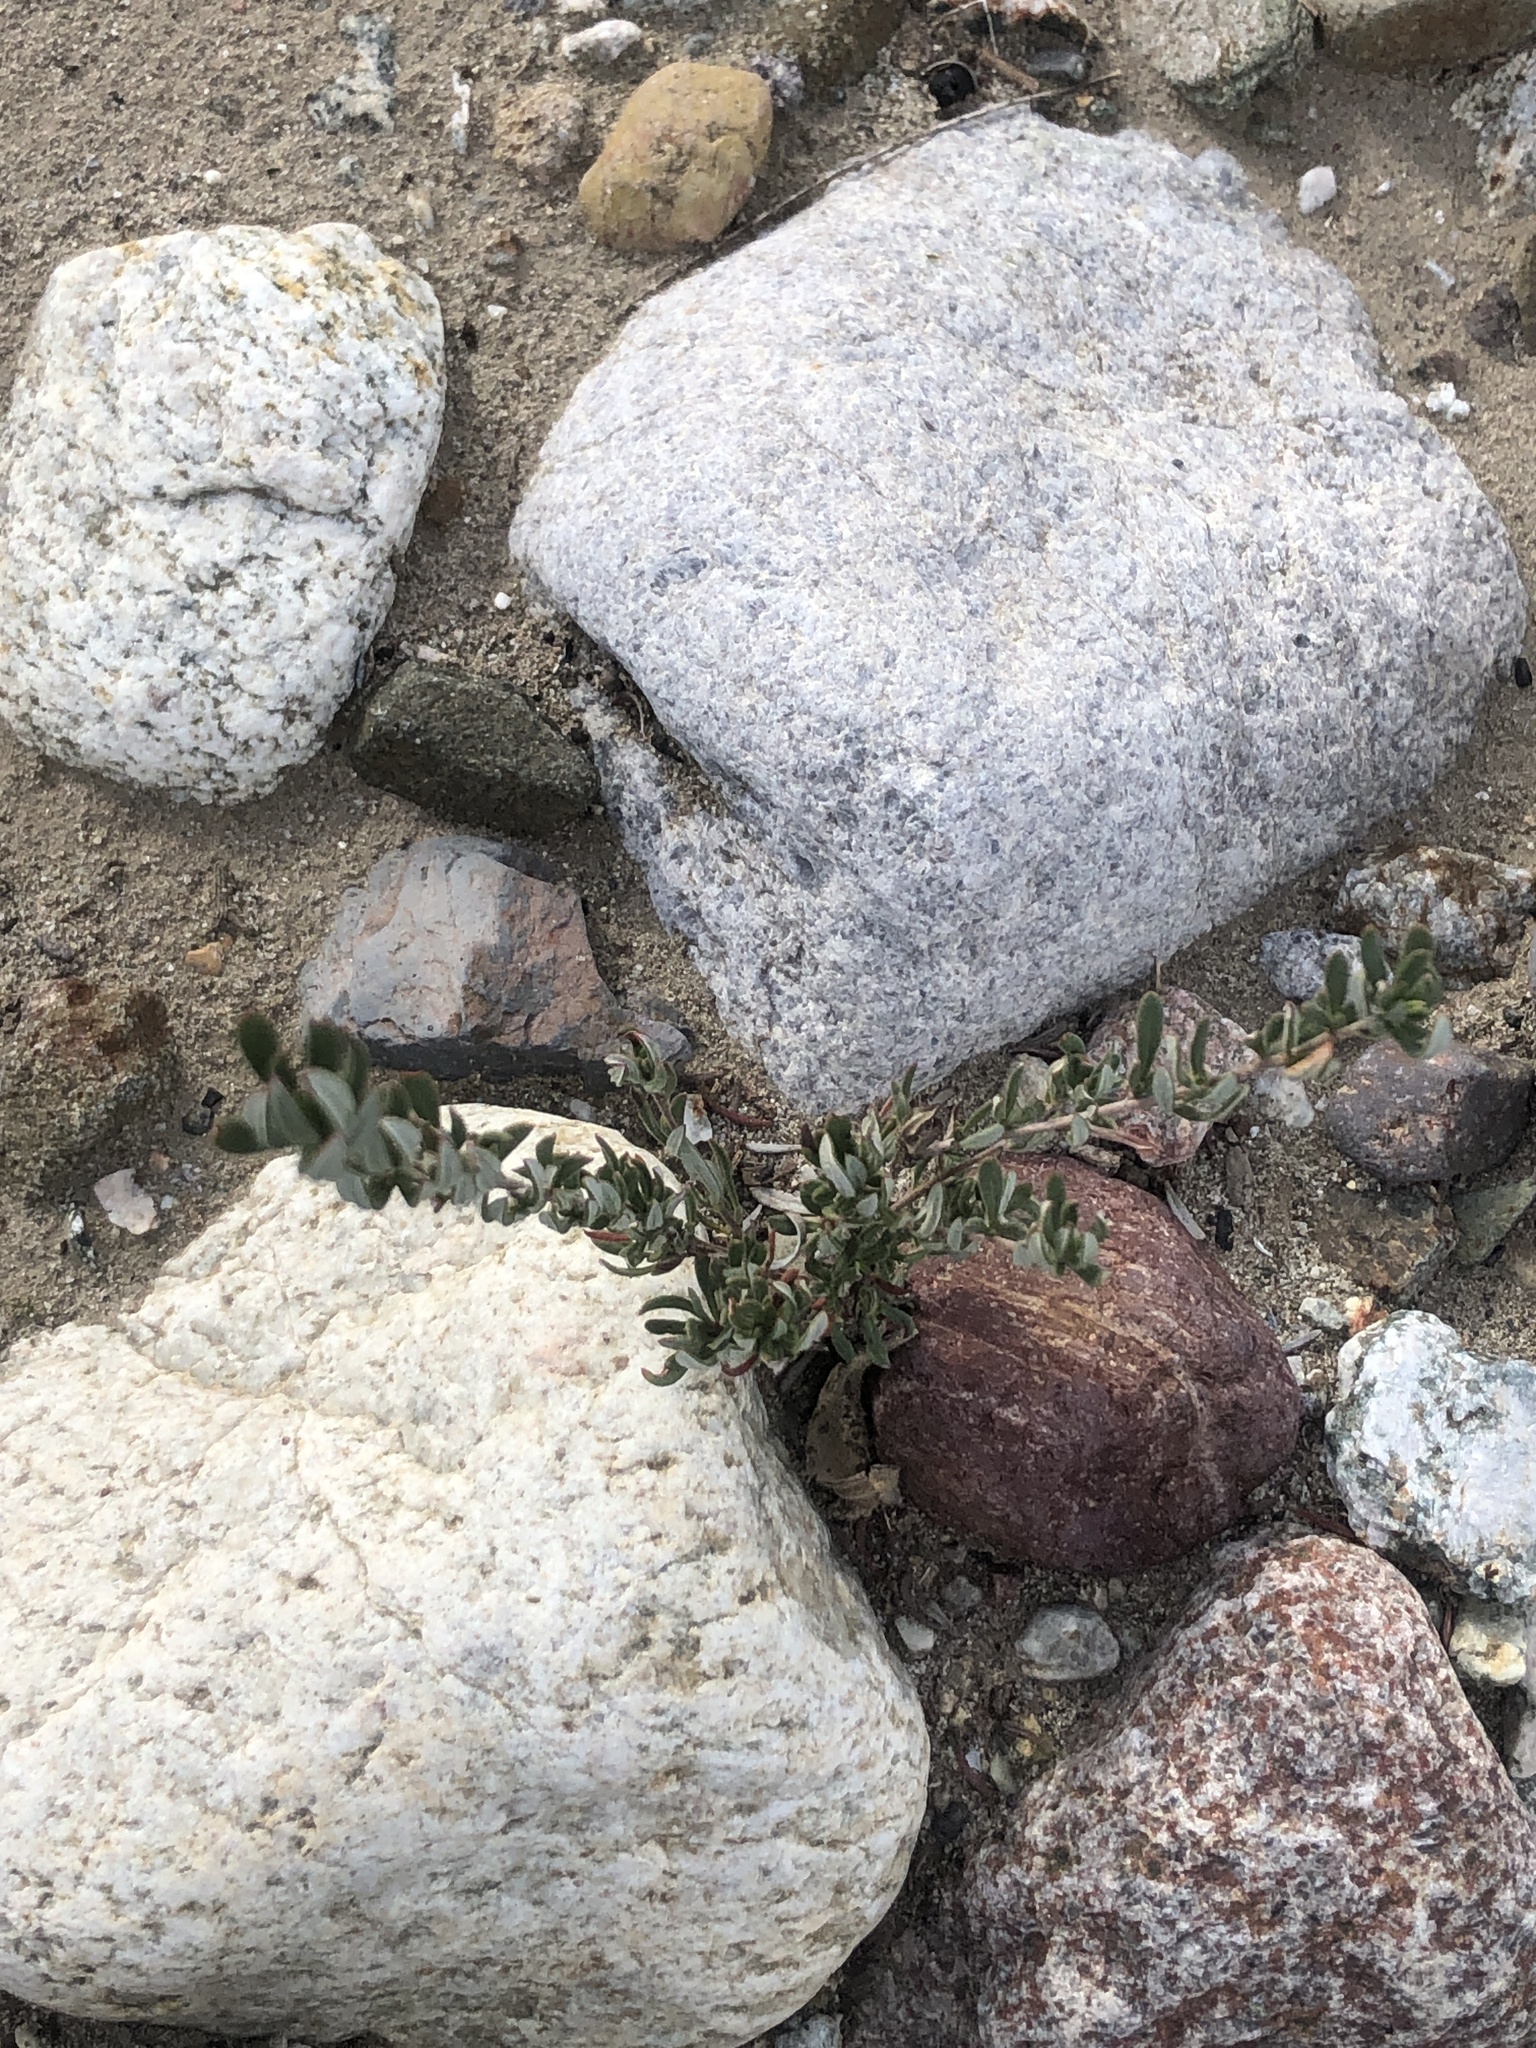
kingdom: Plantae
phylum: Tracheophyta
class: Magnoliopsida
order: Caryophyllales
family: Polygonaceae
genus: Eriogonum
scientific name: Eriogonum fasciculatum
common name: California wild buckwheat
